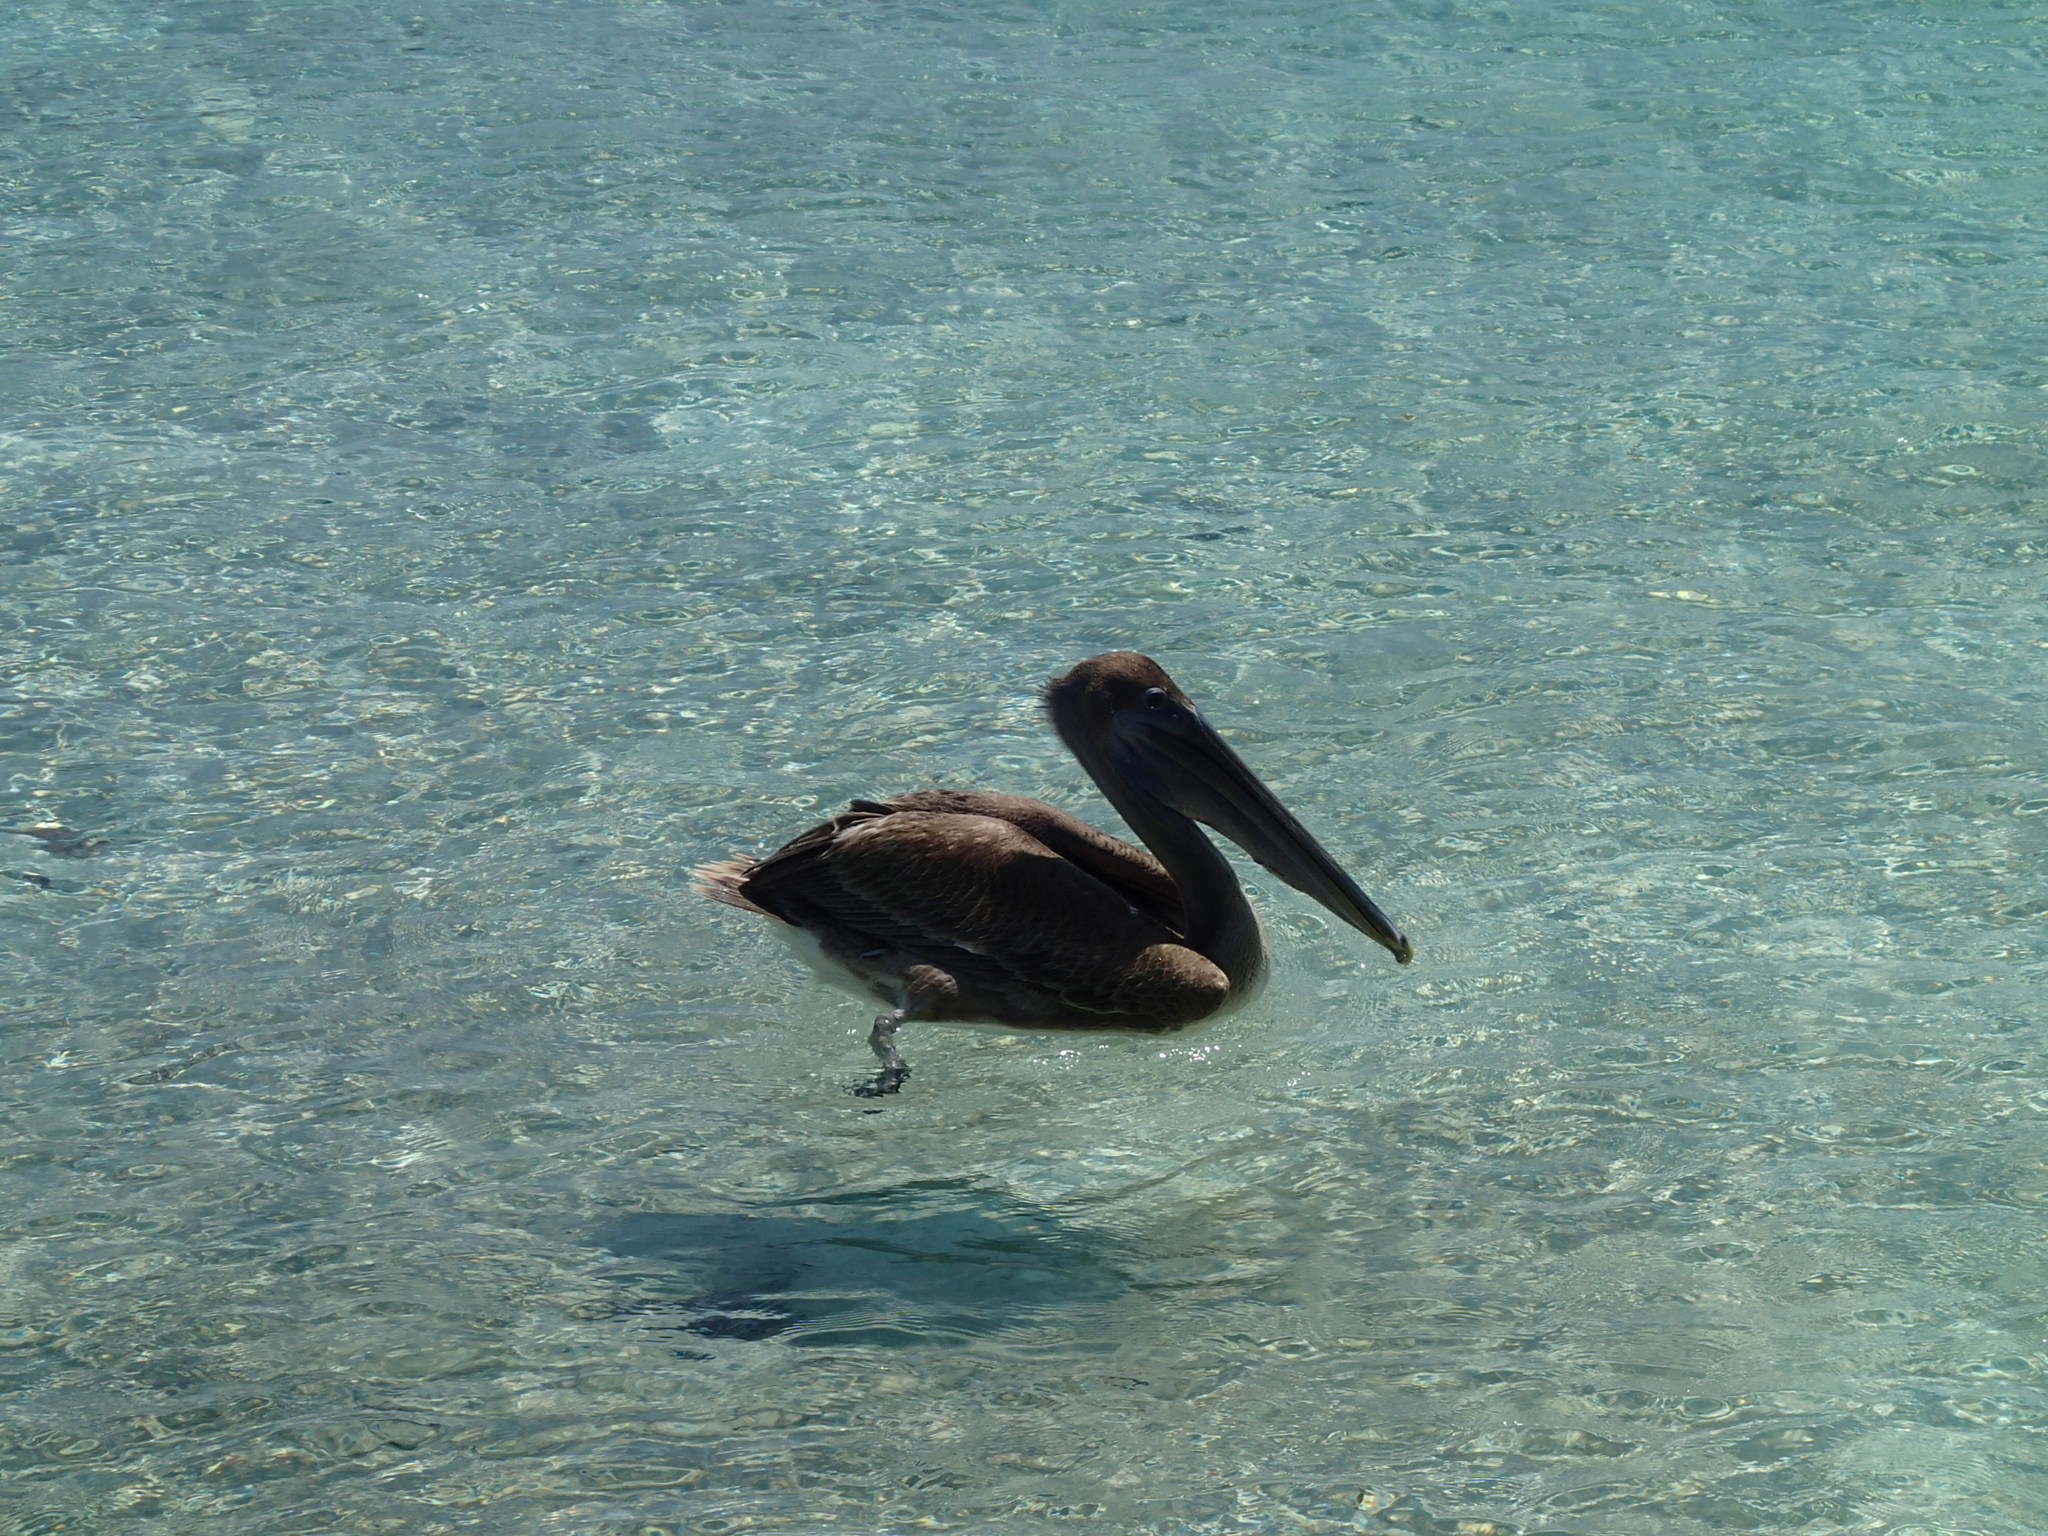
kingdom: Animalia
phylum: Chordata
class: Aves
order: Pelecaniformes
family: Pelecanidae
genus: Pelecanus
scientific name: Pelecanus occidentalis
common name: Brown pelican
